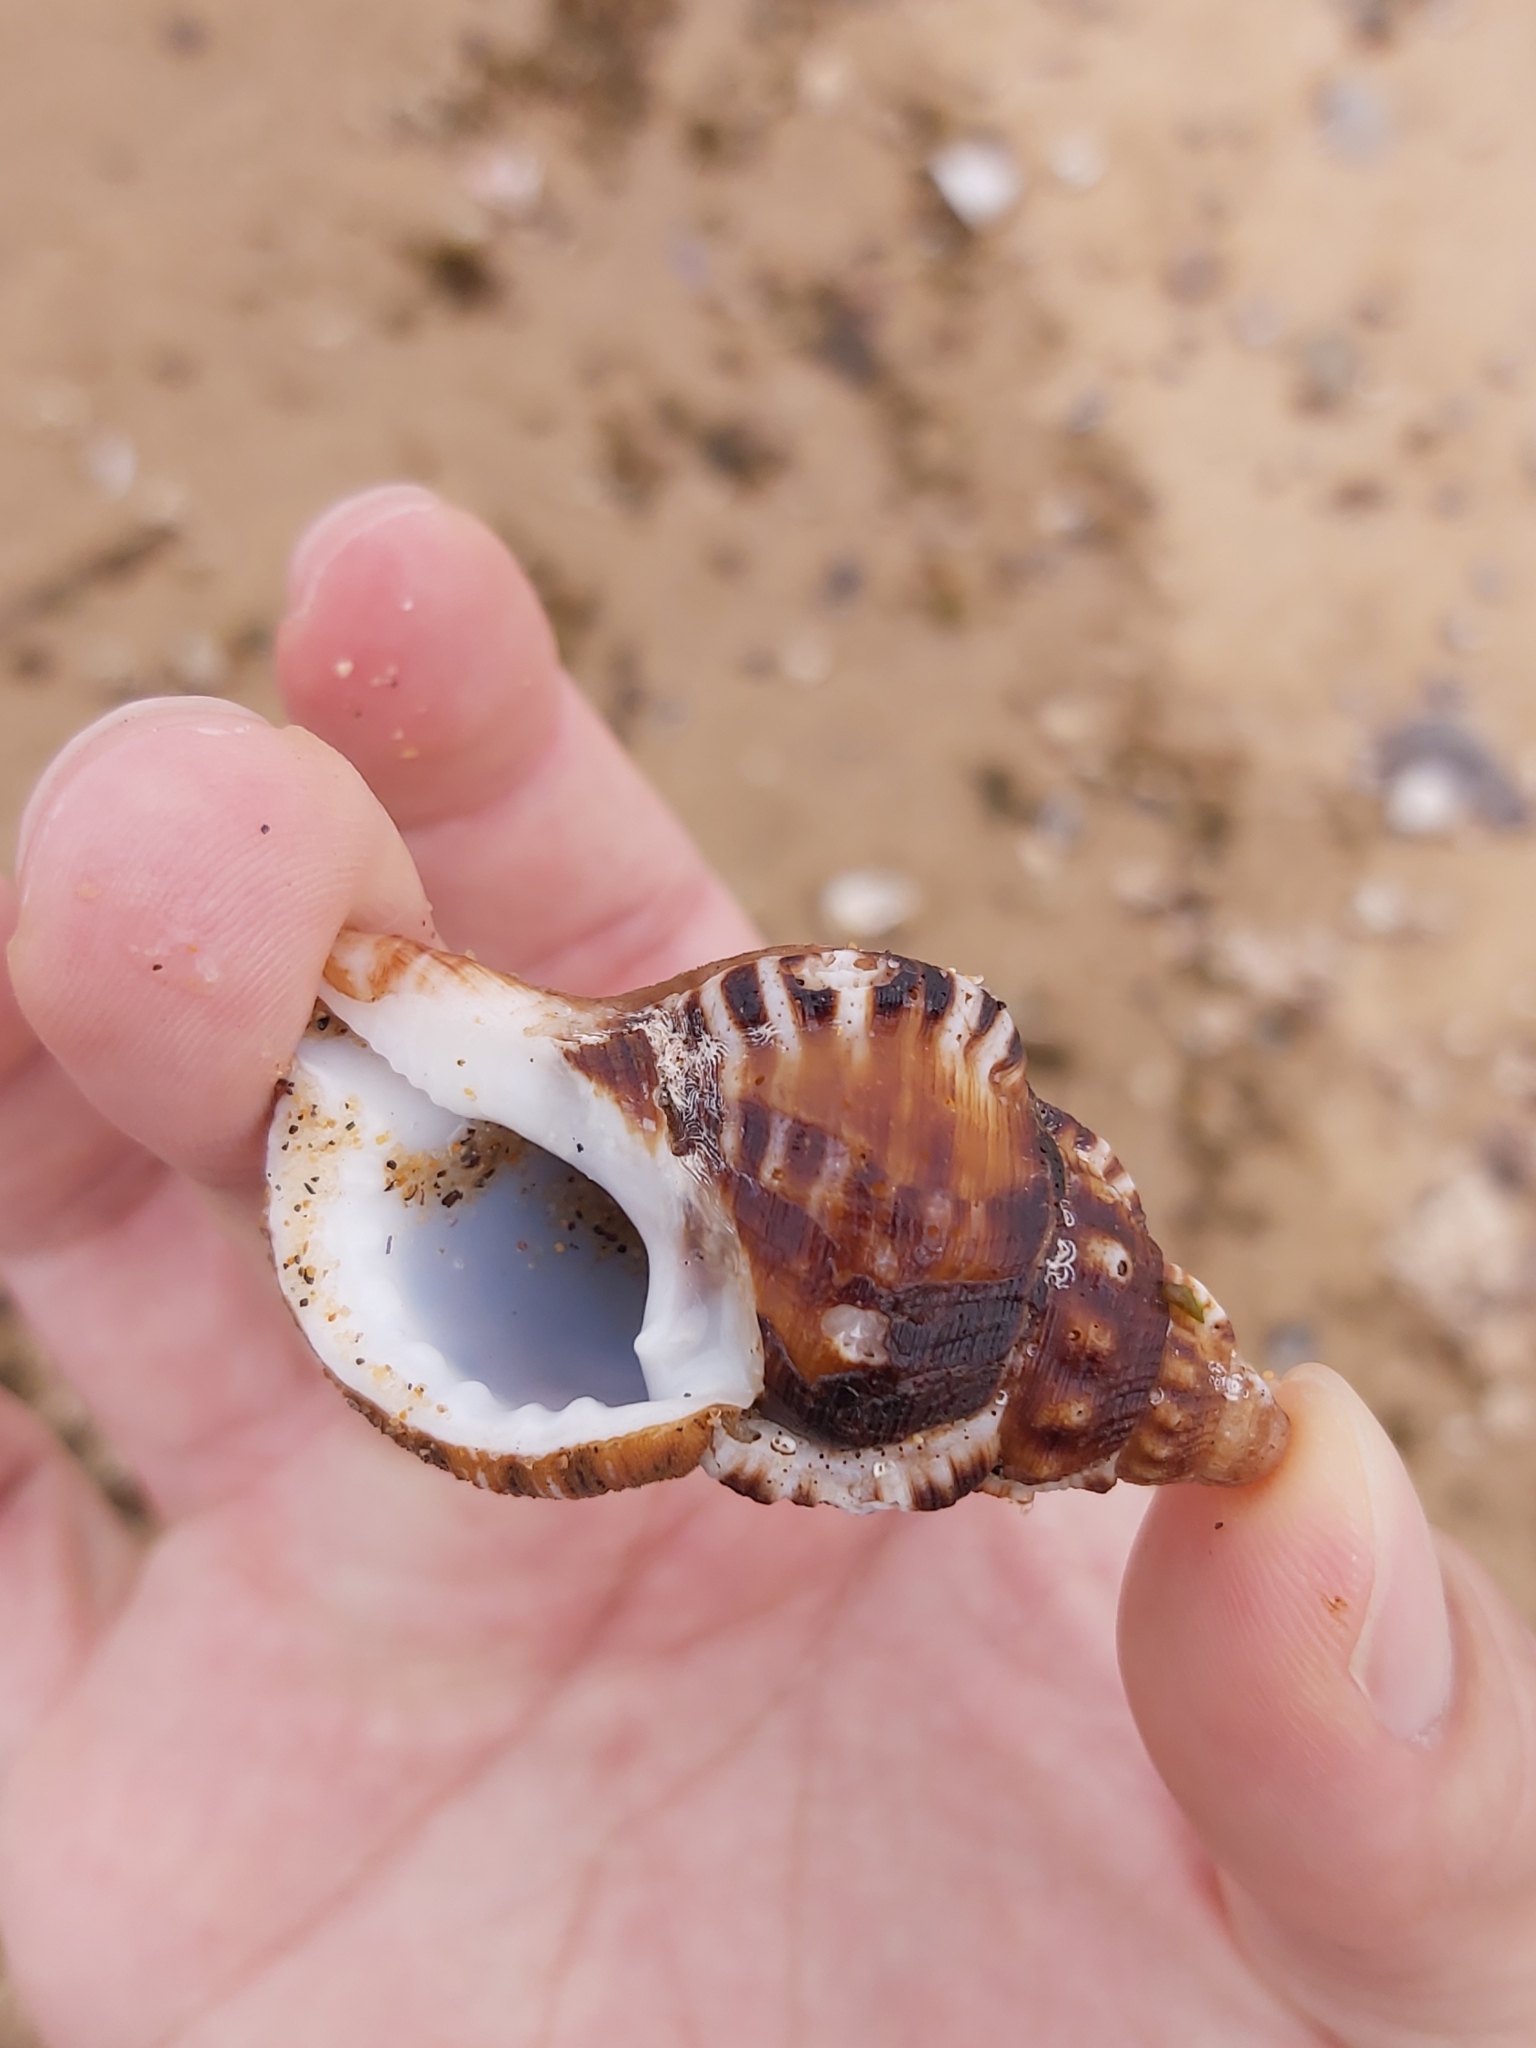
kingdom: Animalia
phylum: Mollusca
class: Gastropoda
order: Littorinimorpha
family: Ranellidae
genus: Ranella
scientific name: Ranella australasia
